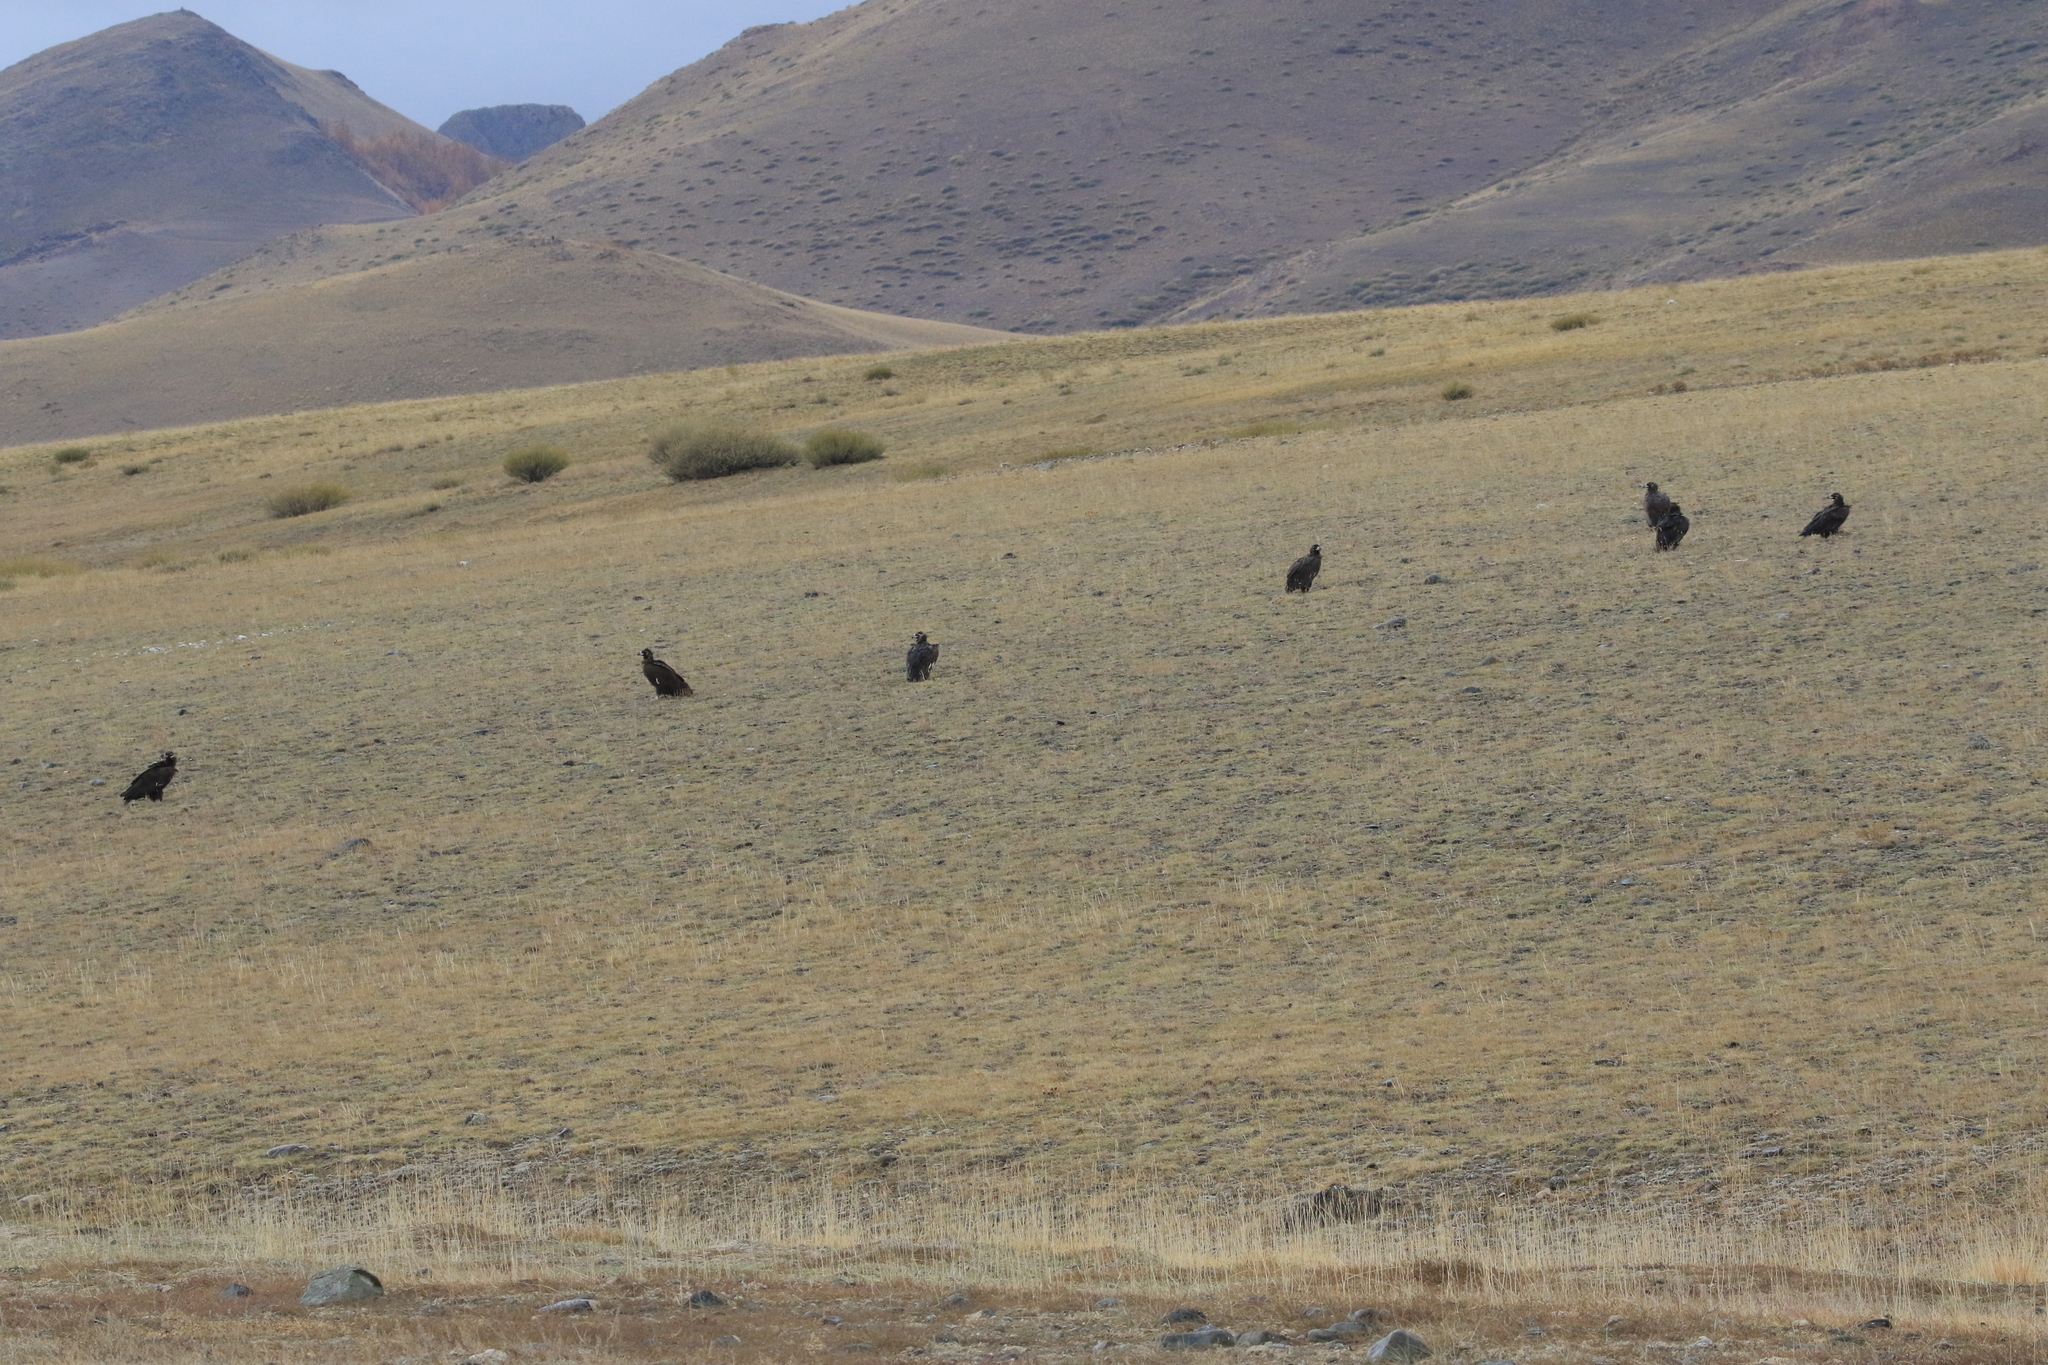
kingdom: Animalia
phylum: Chordata
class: Aves
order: Accipitriformes
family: Accipitridae
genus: Aegypius
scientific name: Aegypius monachus
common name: Cinereous vulture
